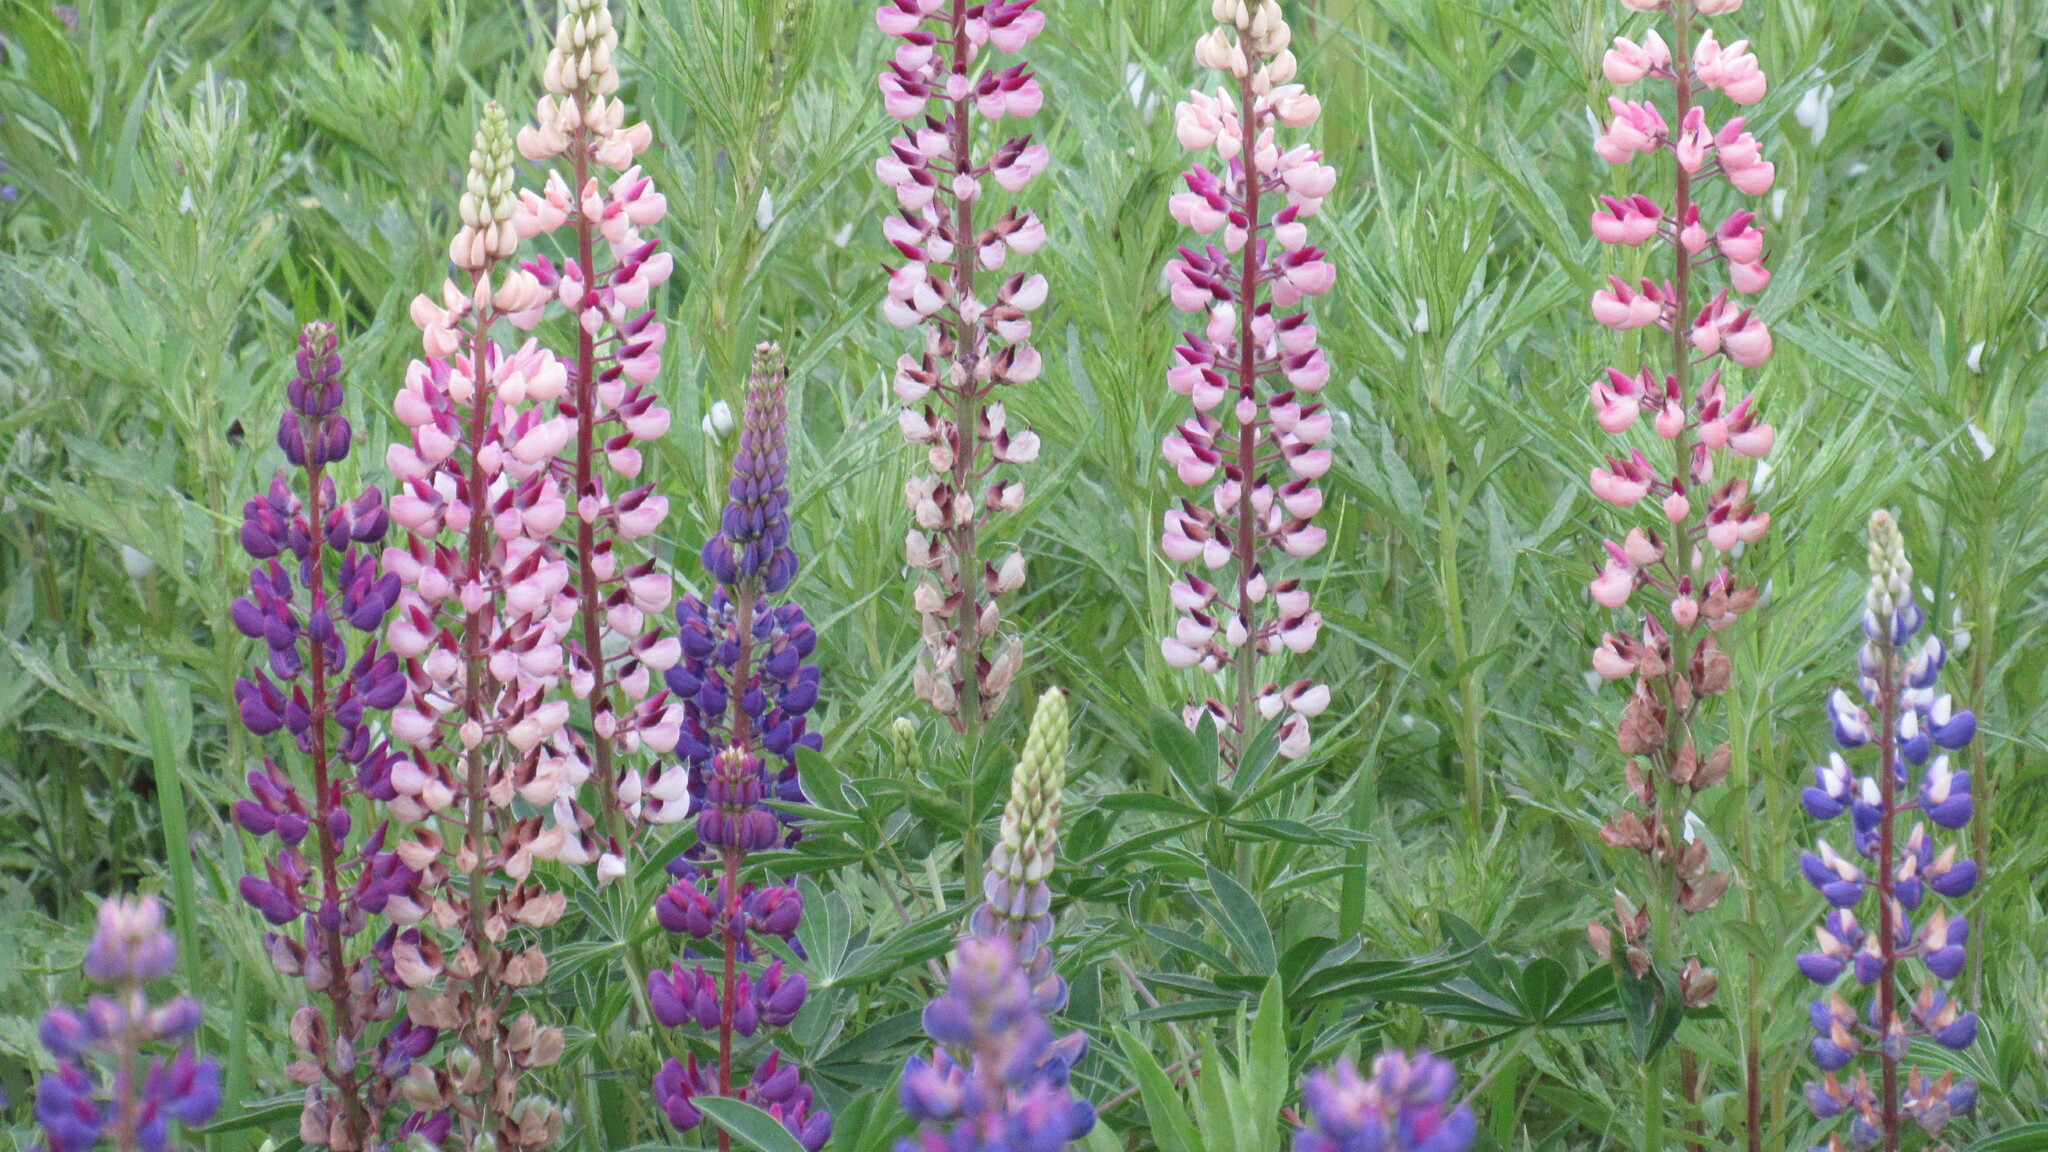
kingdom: Plantae
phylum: Tracheophyta
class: Magnoliopsida
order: Fabales
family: Fabaceae
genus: Lupinus
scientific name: Lupinus polyphyllus
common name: Garden lupin
